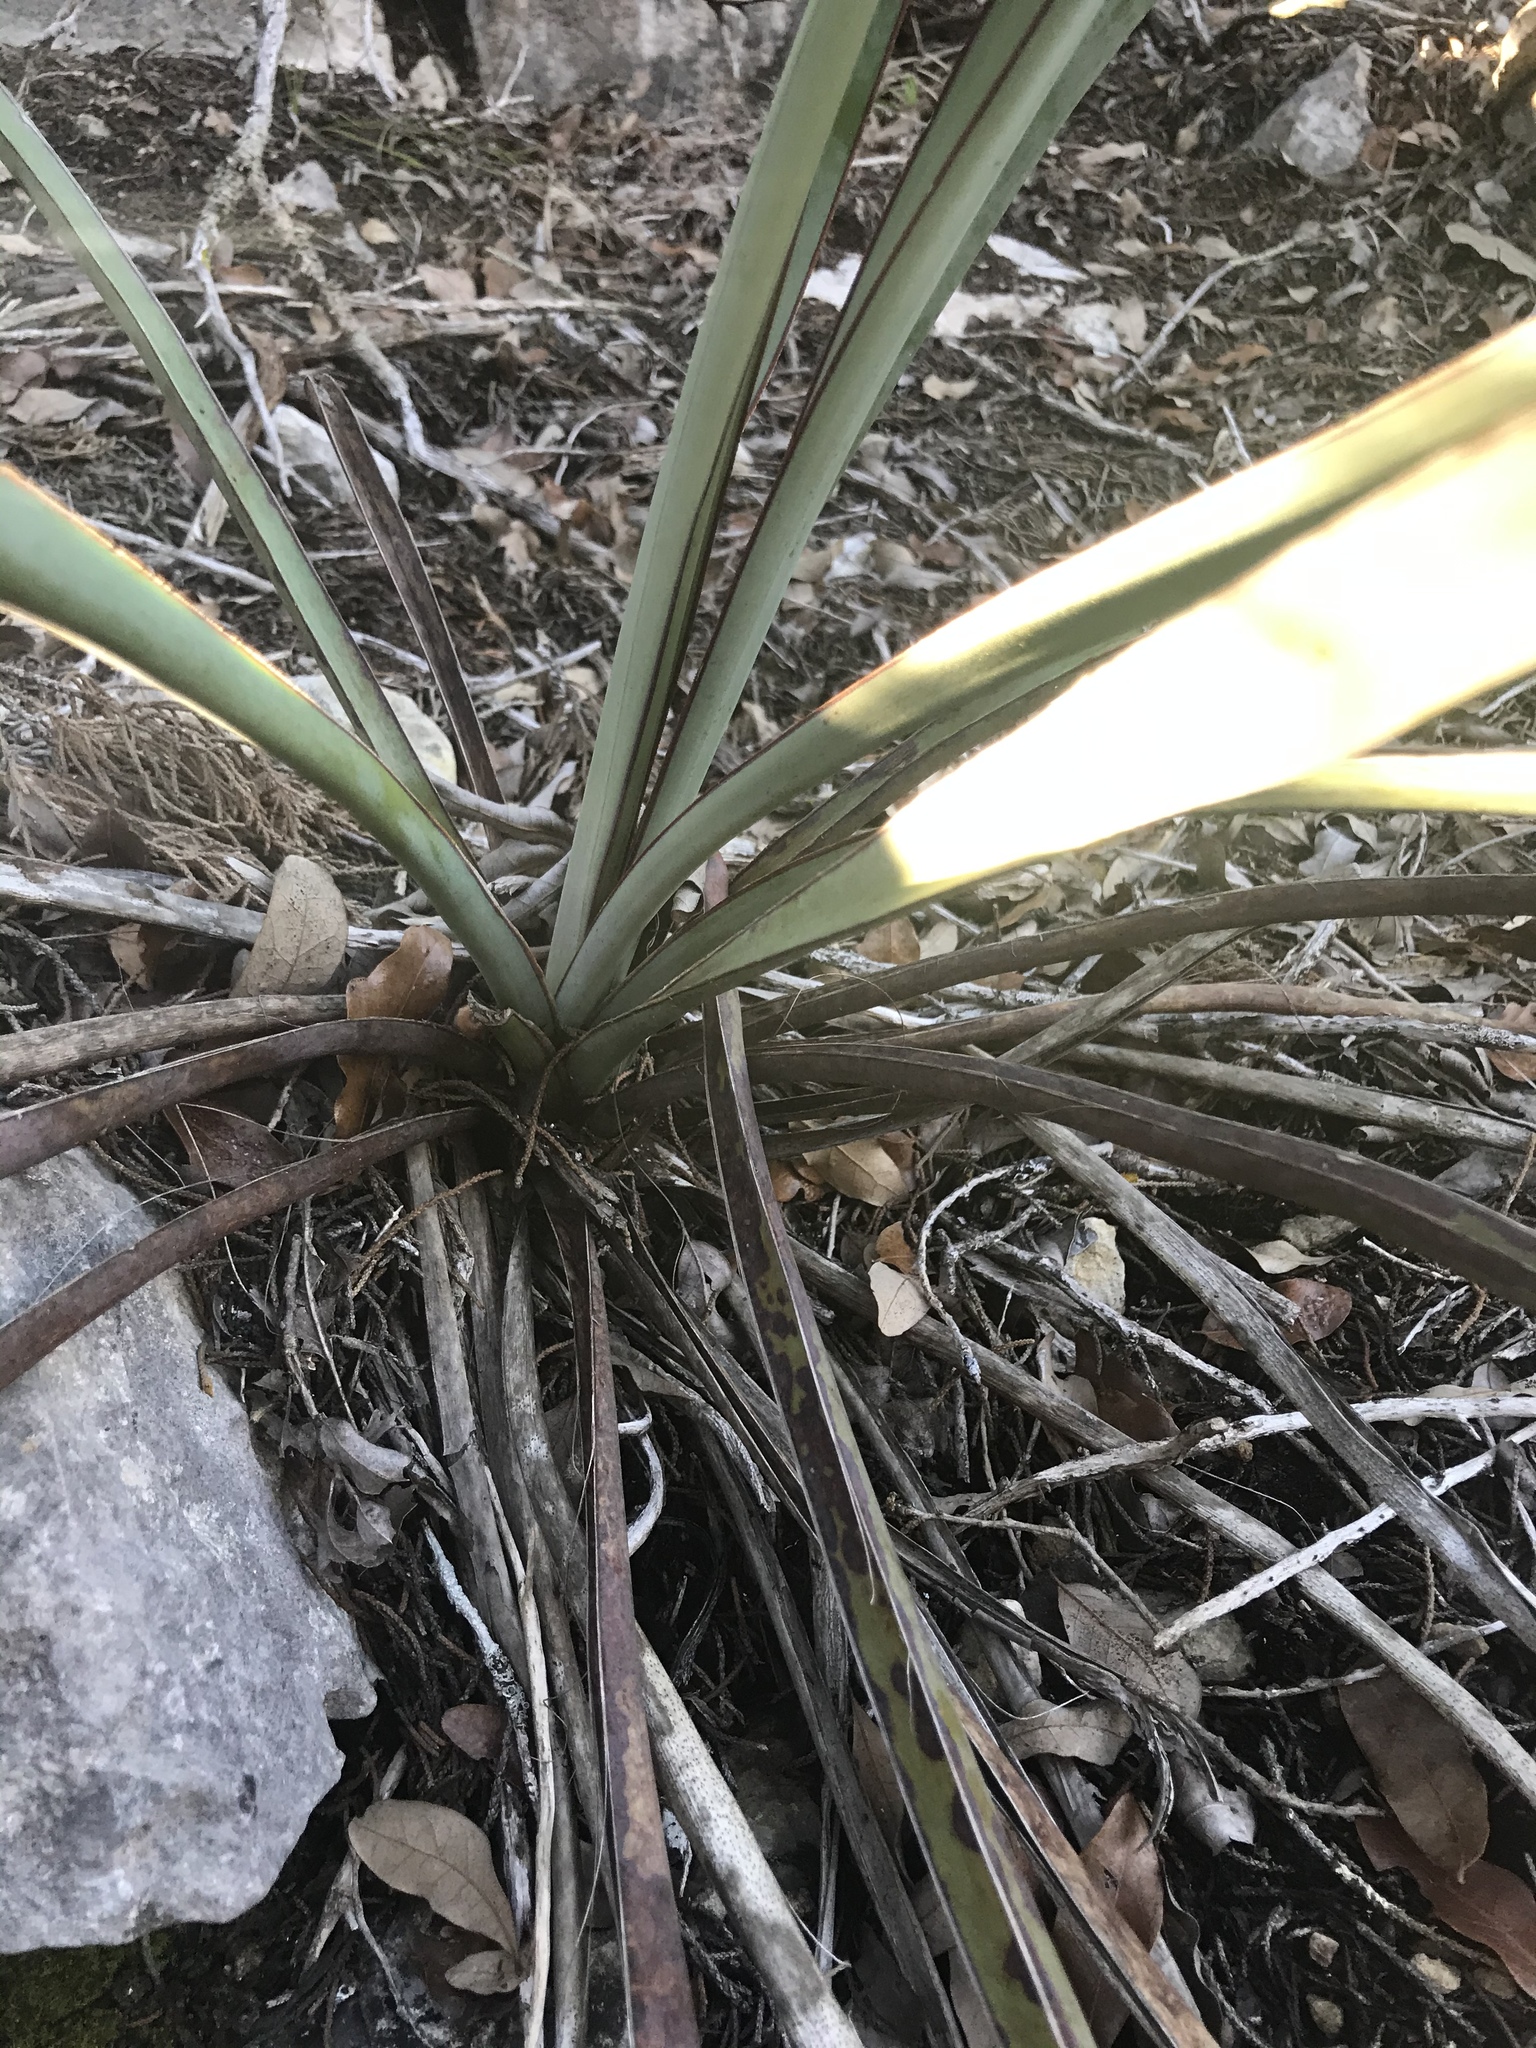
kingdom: Plantae
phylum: Tracheophyta
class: Liliopsida
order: Asparagales
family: Asparagaceae
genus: Yucca
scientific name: Yucca treculiana
